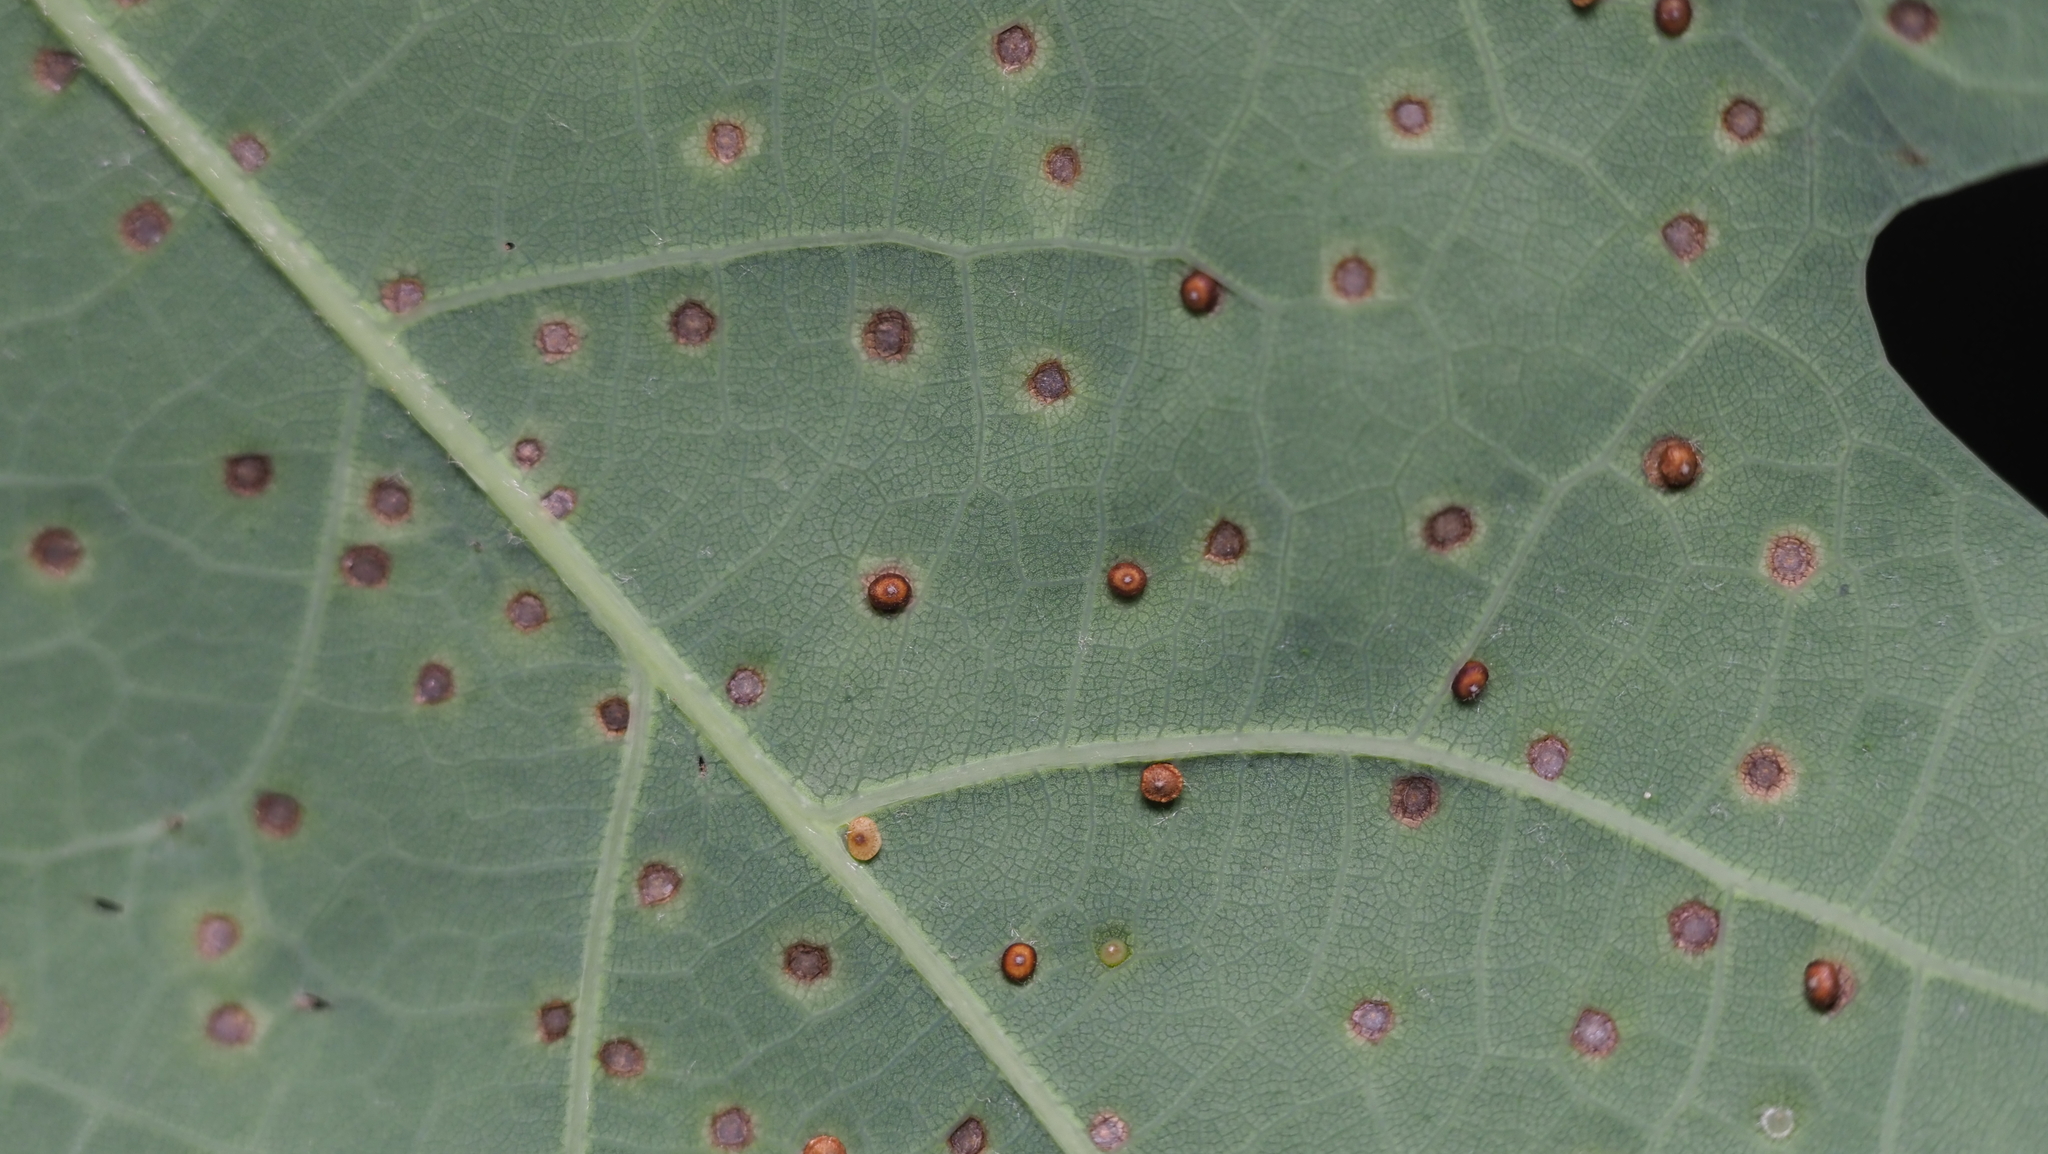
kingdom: Animalia
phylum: Arthropoda
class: Insecta
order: Hymenoptera
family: Cynipidae
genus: Neuroterus
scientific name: Neuroterus
